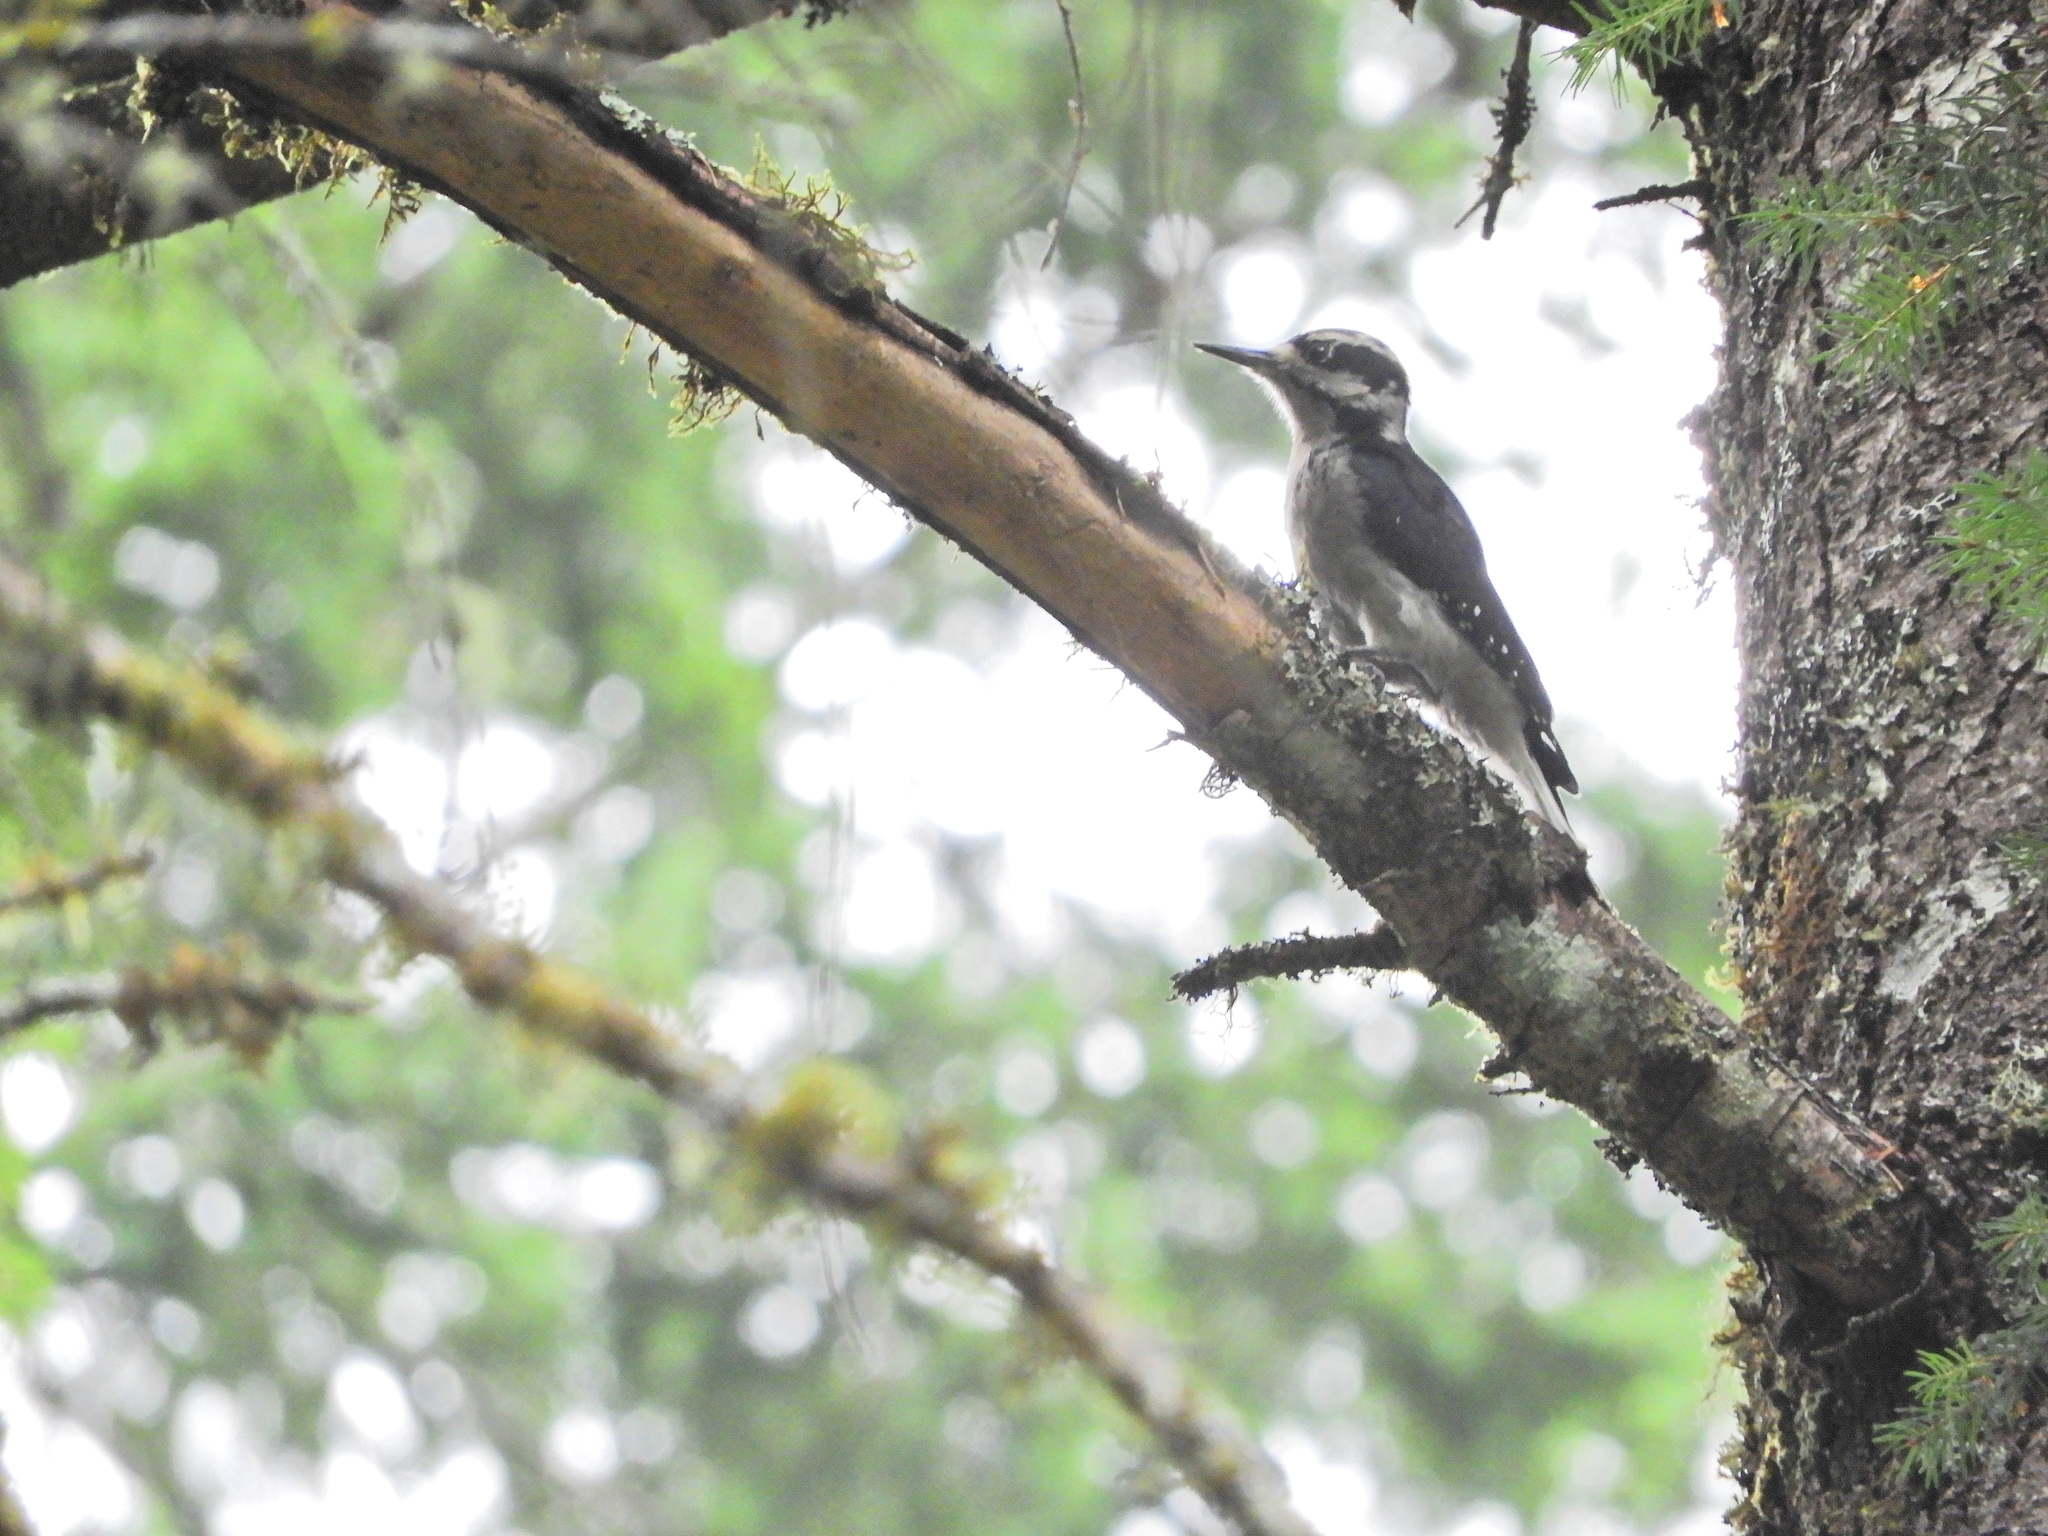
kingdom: Animalia
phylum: Chordata
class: Aves
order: Piciformes
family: Picidae
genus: Leuconotopicus
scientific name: Leuconotopicus villosus
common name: Hairy woodpecker
